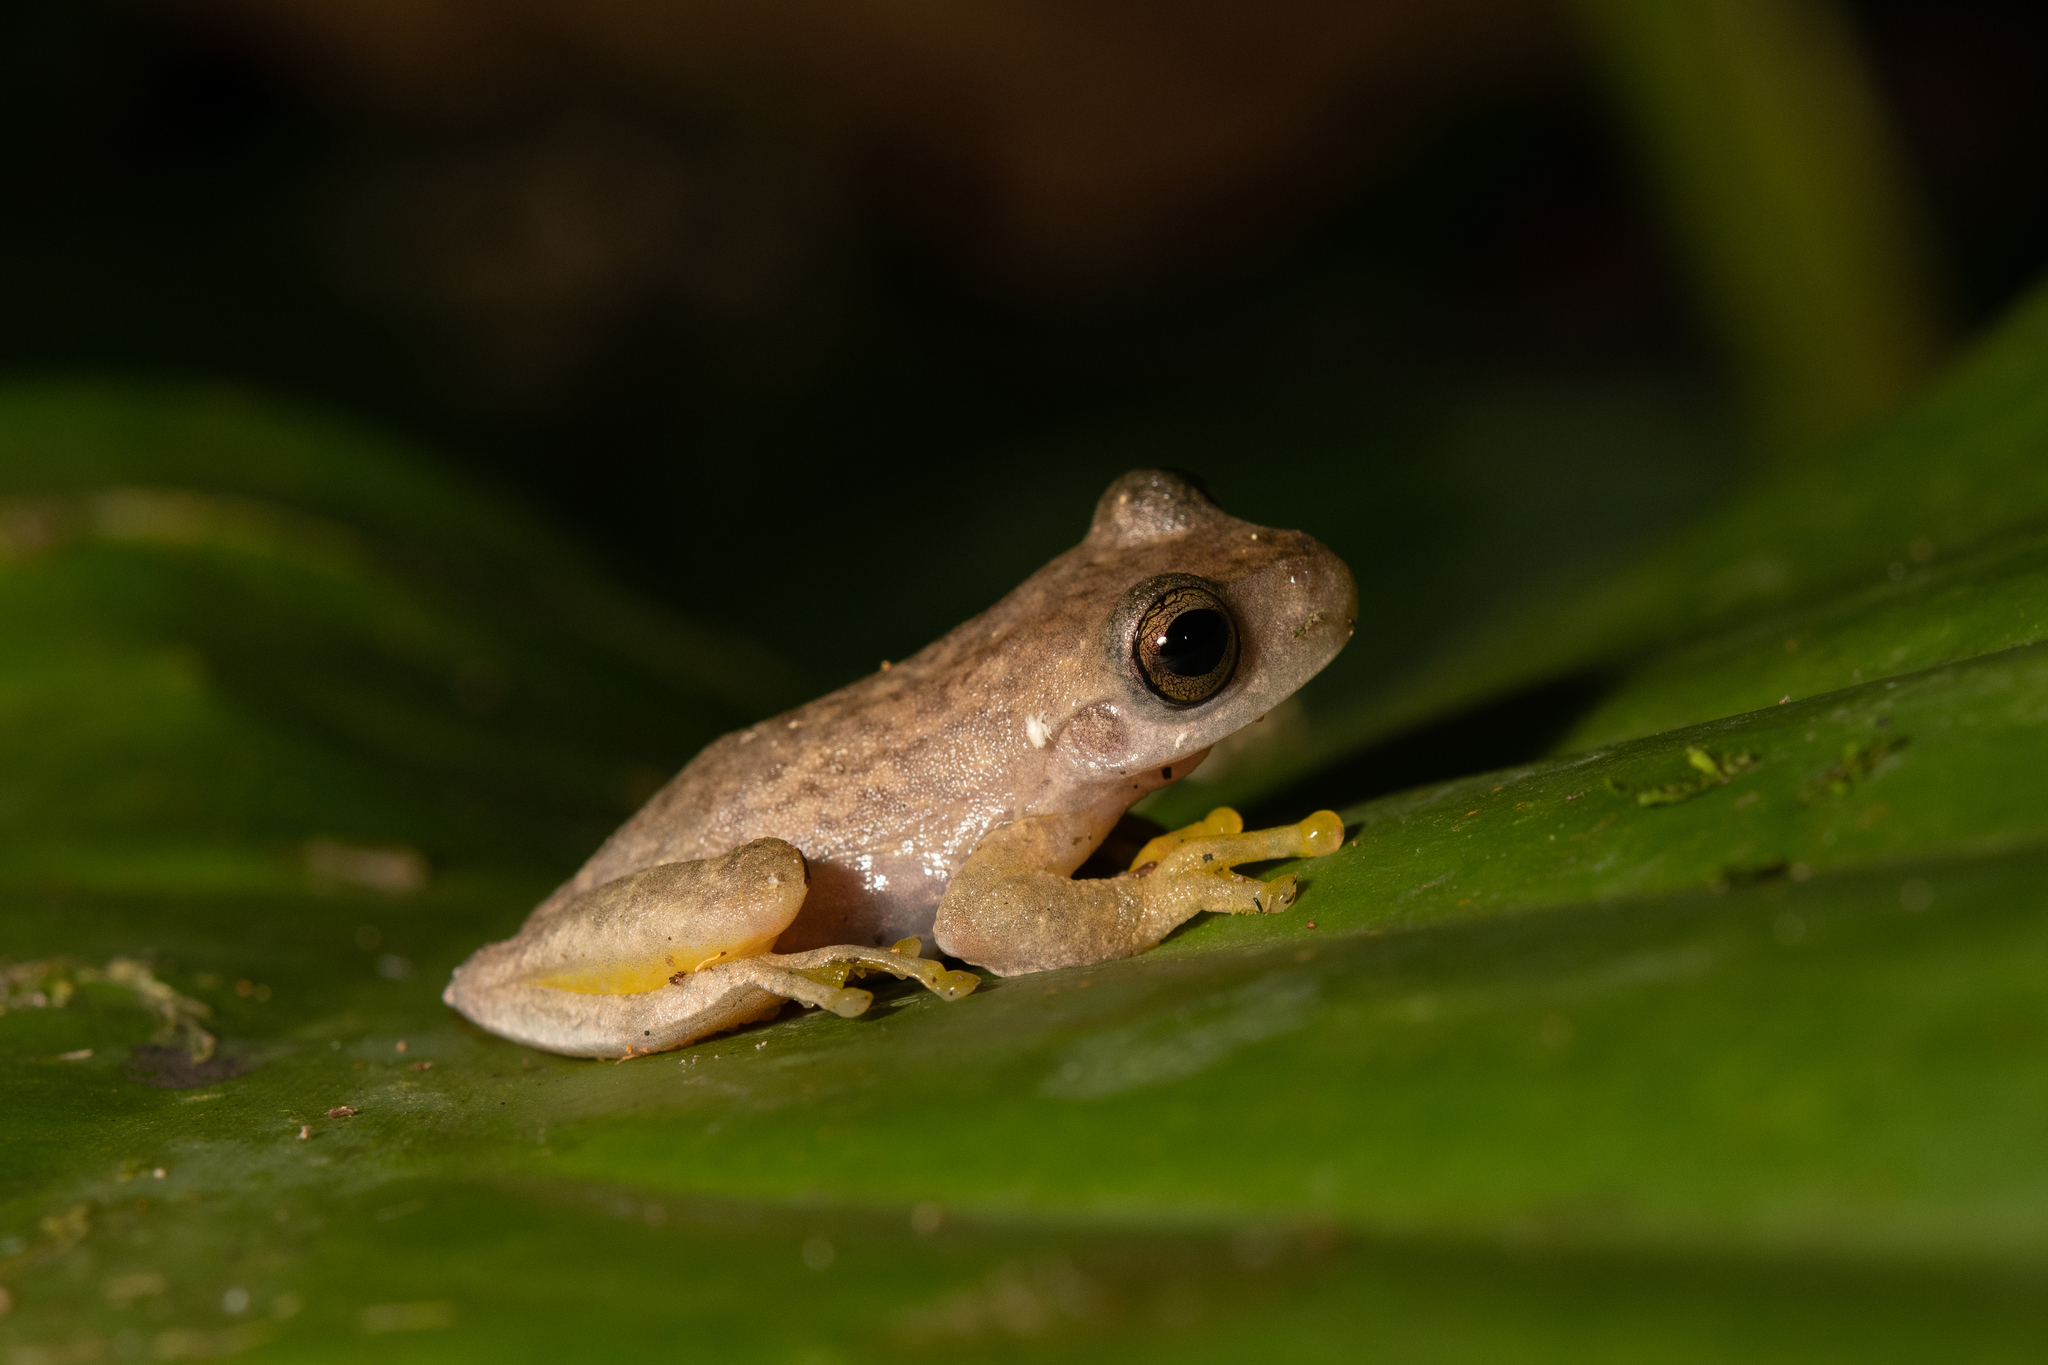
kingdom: Animalia
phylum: Chordata
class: Amphibia
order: Anura
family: Hylidae
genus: Ptychohyla
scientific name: Ptychohyla hypomykter
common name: Copan stream frog
